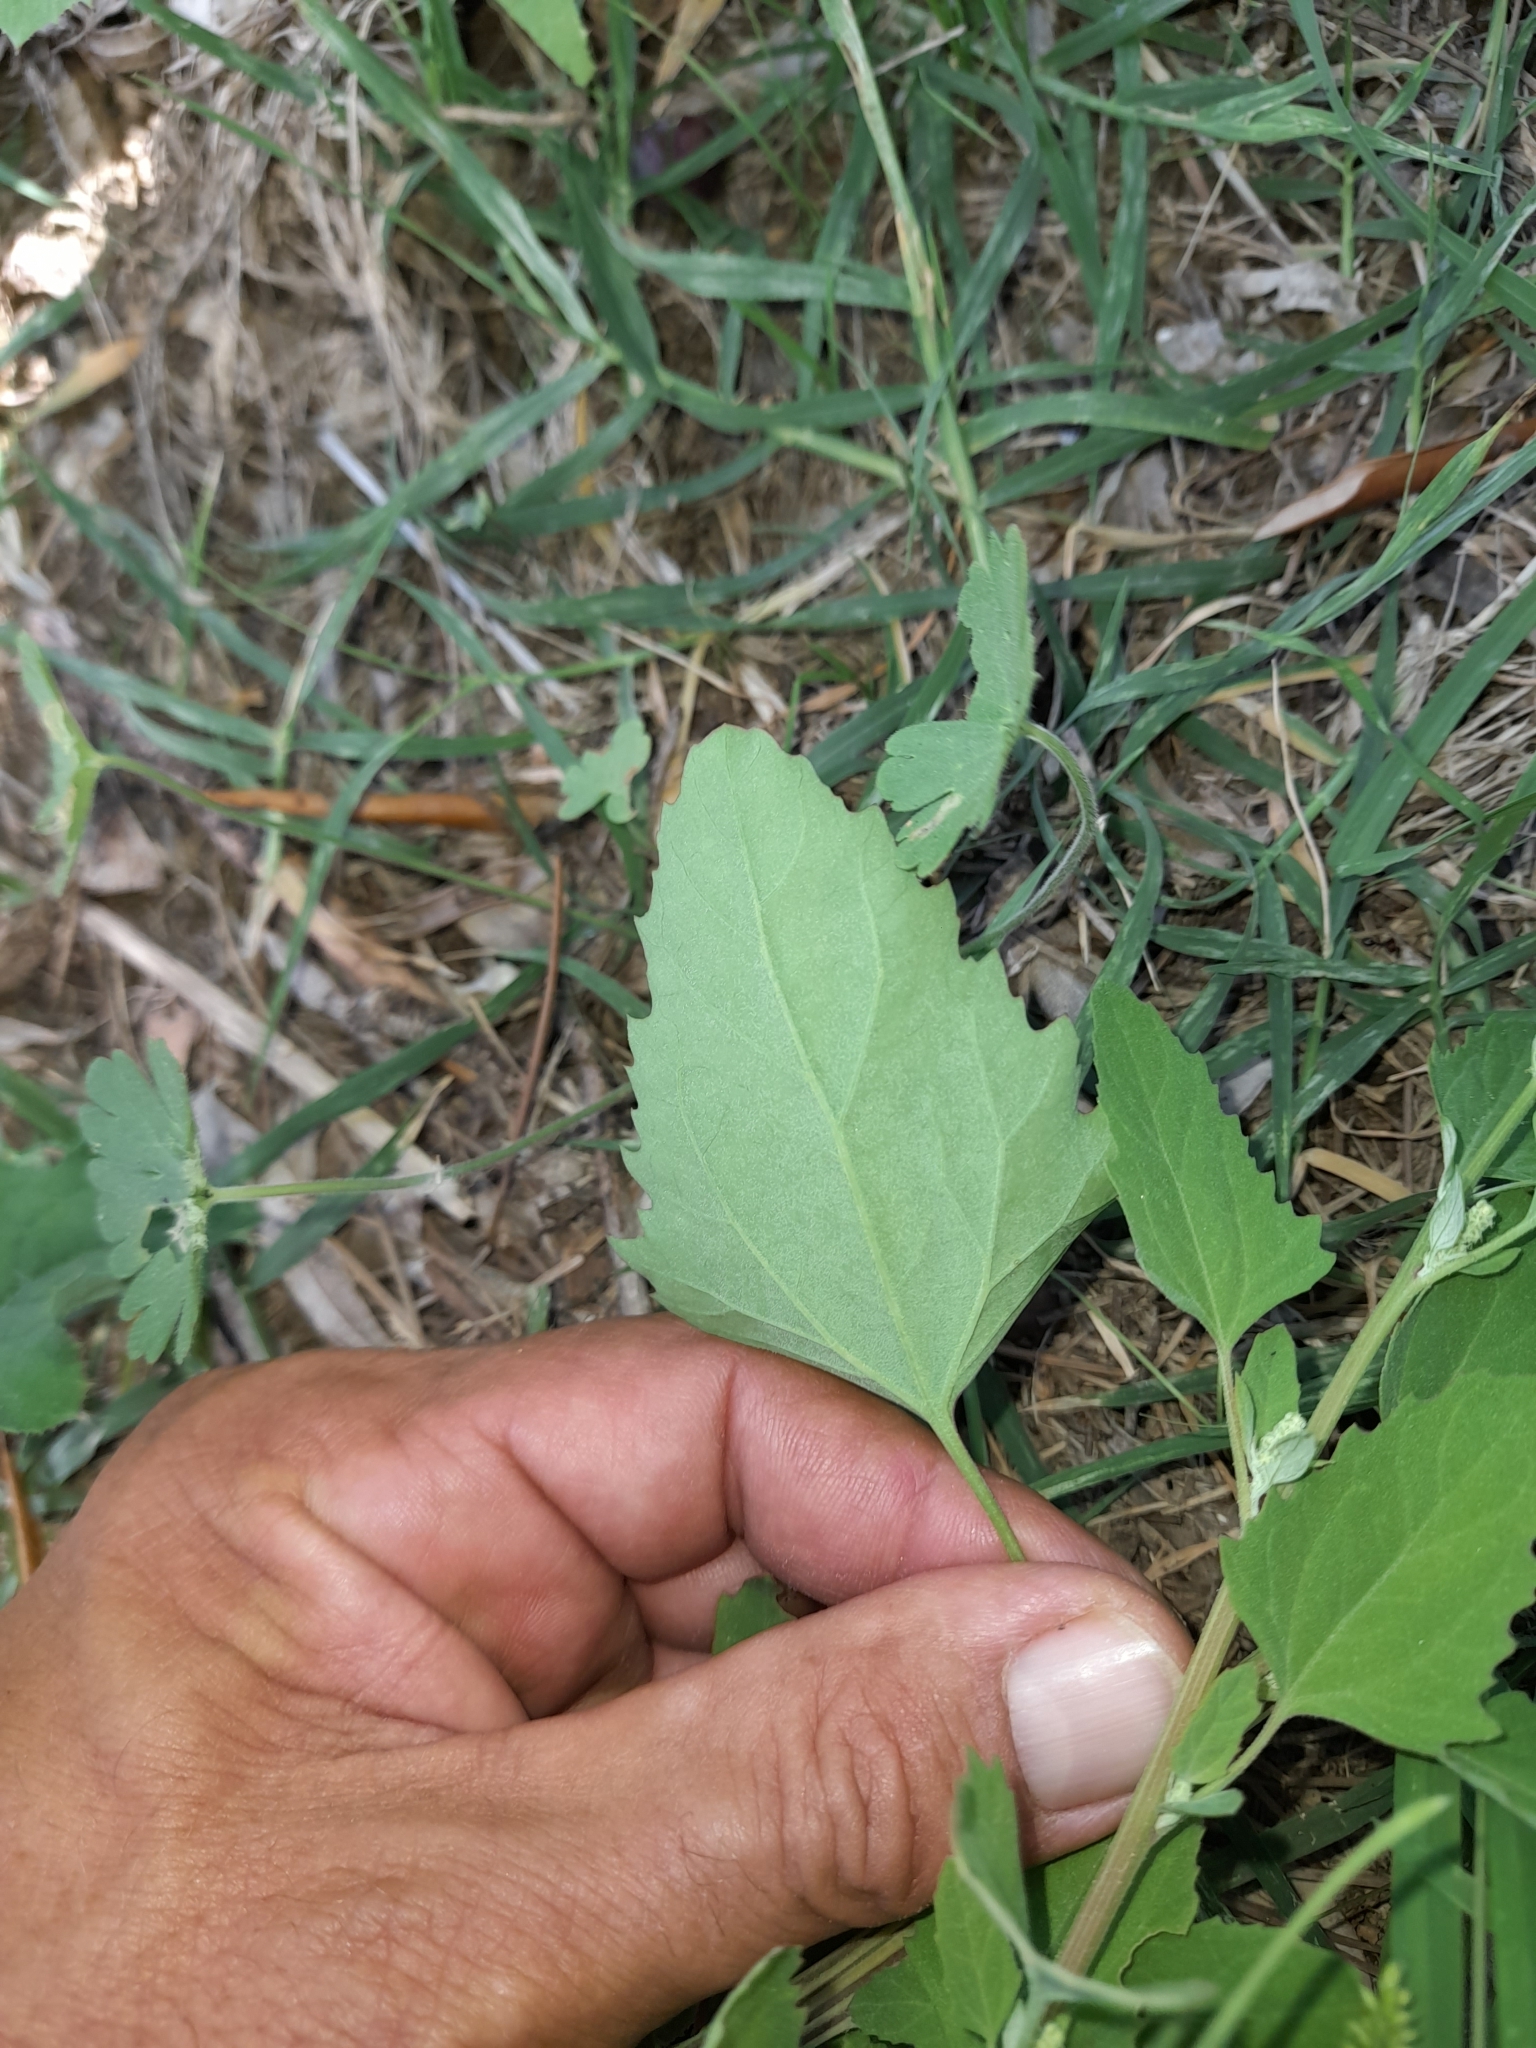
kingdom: Plantae
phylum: Tracheophyta
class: Magnoliopsida
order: Caryophyllales
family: Amaranthaceae
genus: Chenopodium
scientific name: Chenopodium album
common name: Fat-hen
